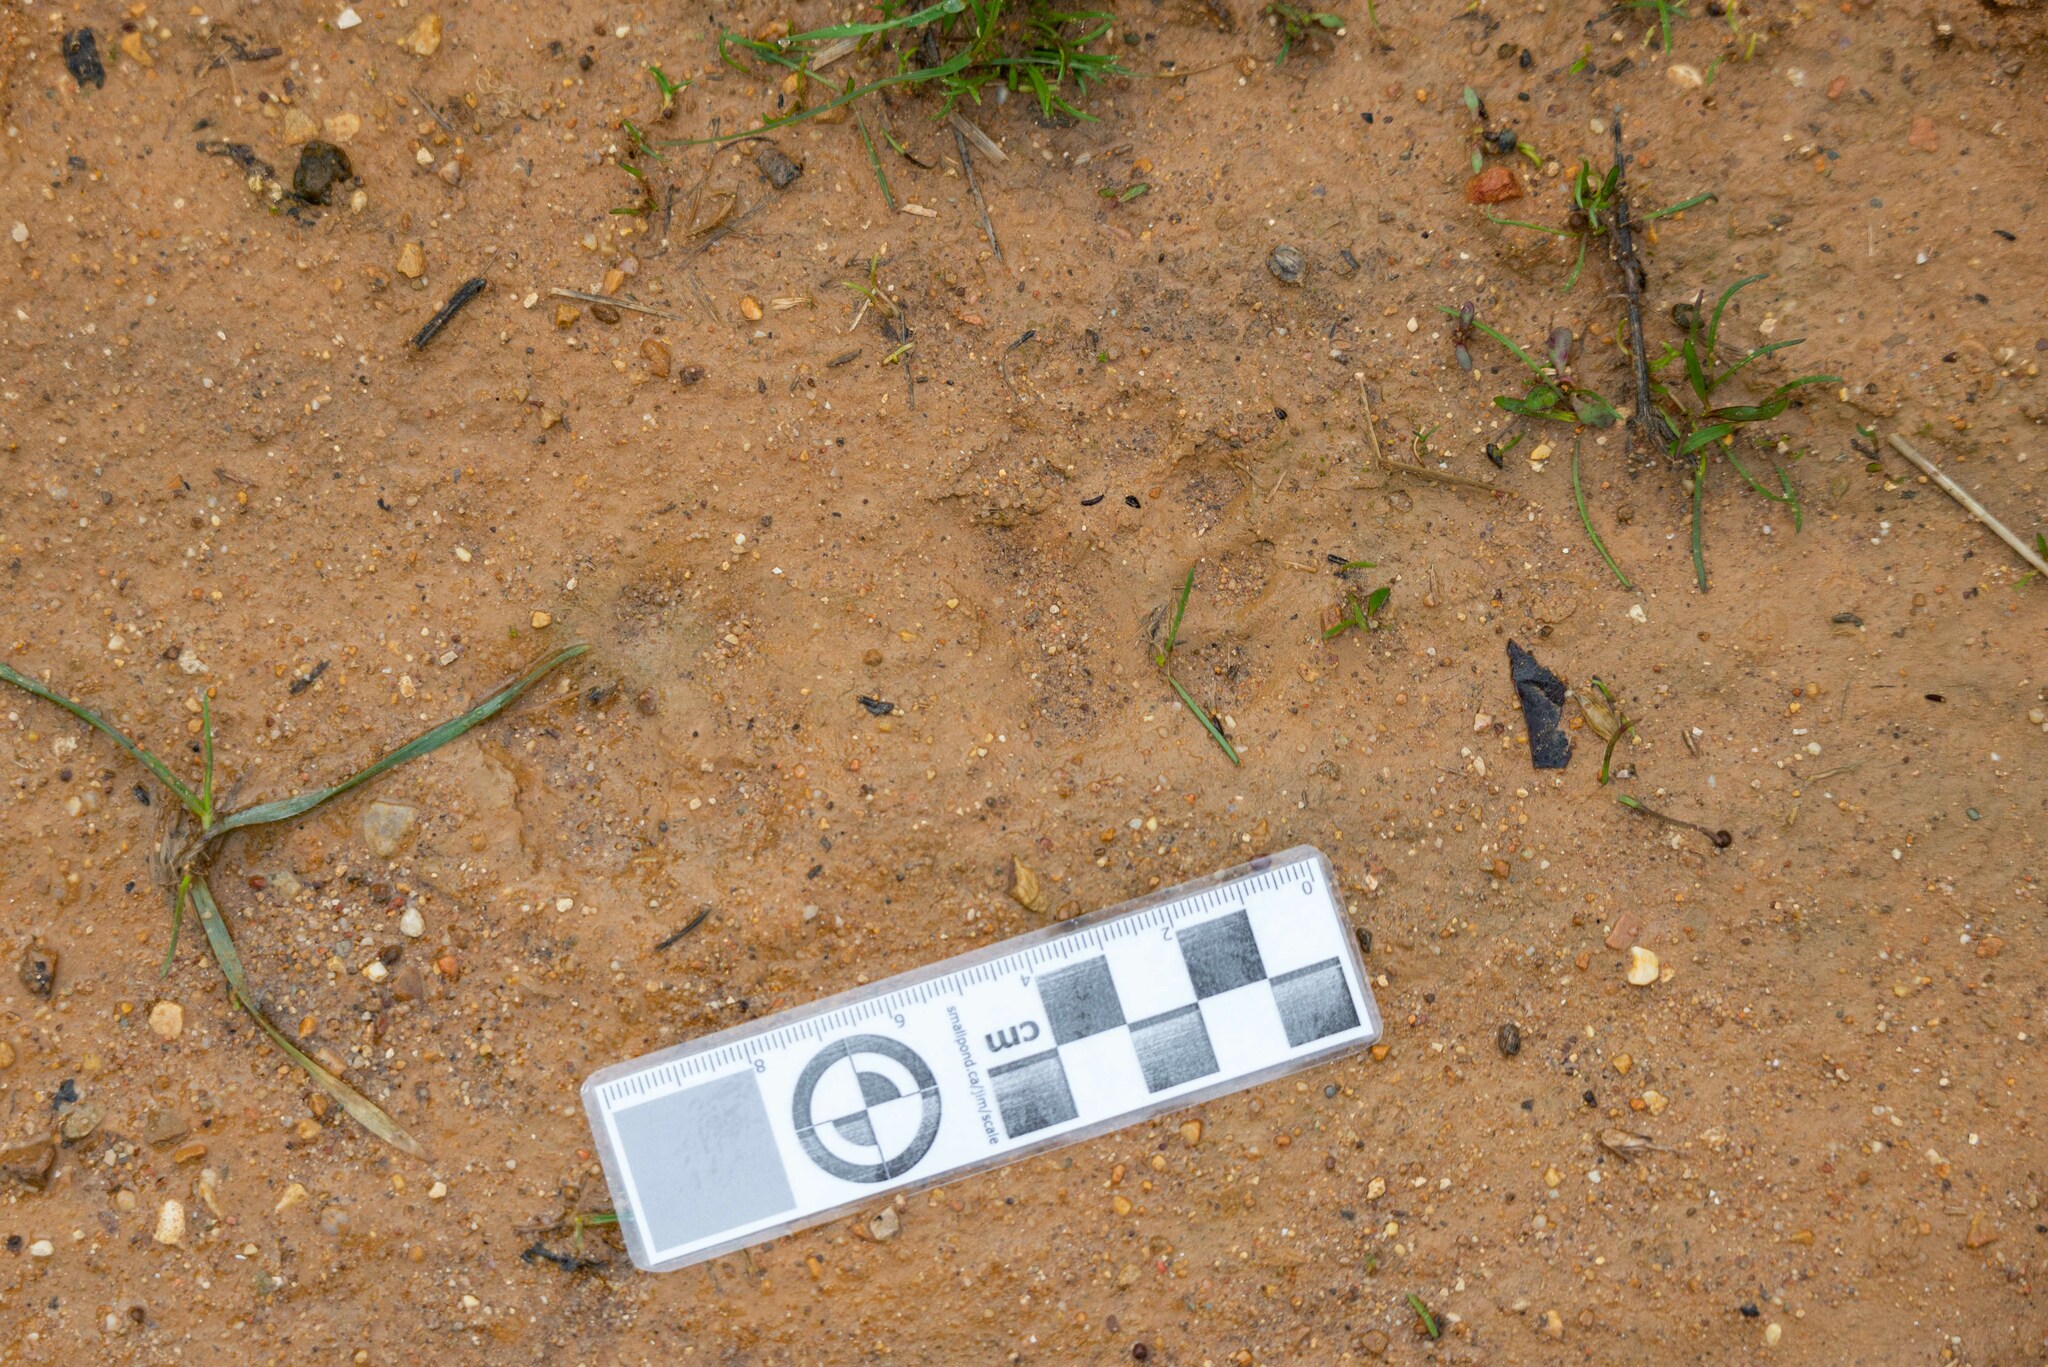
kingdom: Animalia
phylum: Chordata
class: Mammalia
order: Carnivora
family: Mustelidae
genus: Meles
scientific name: Meles meles
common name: Eurasian badger
